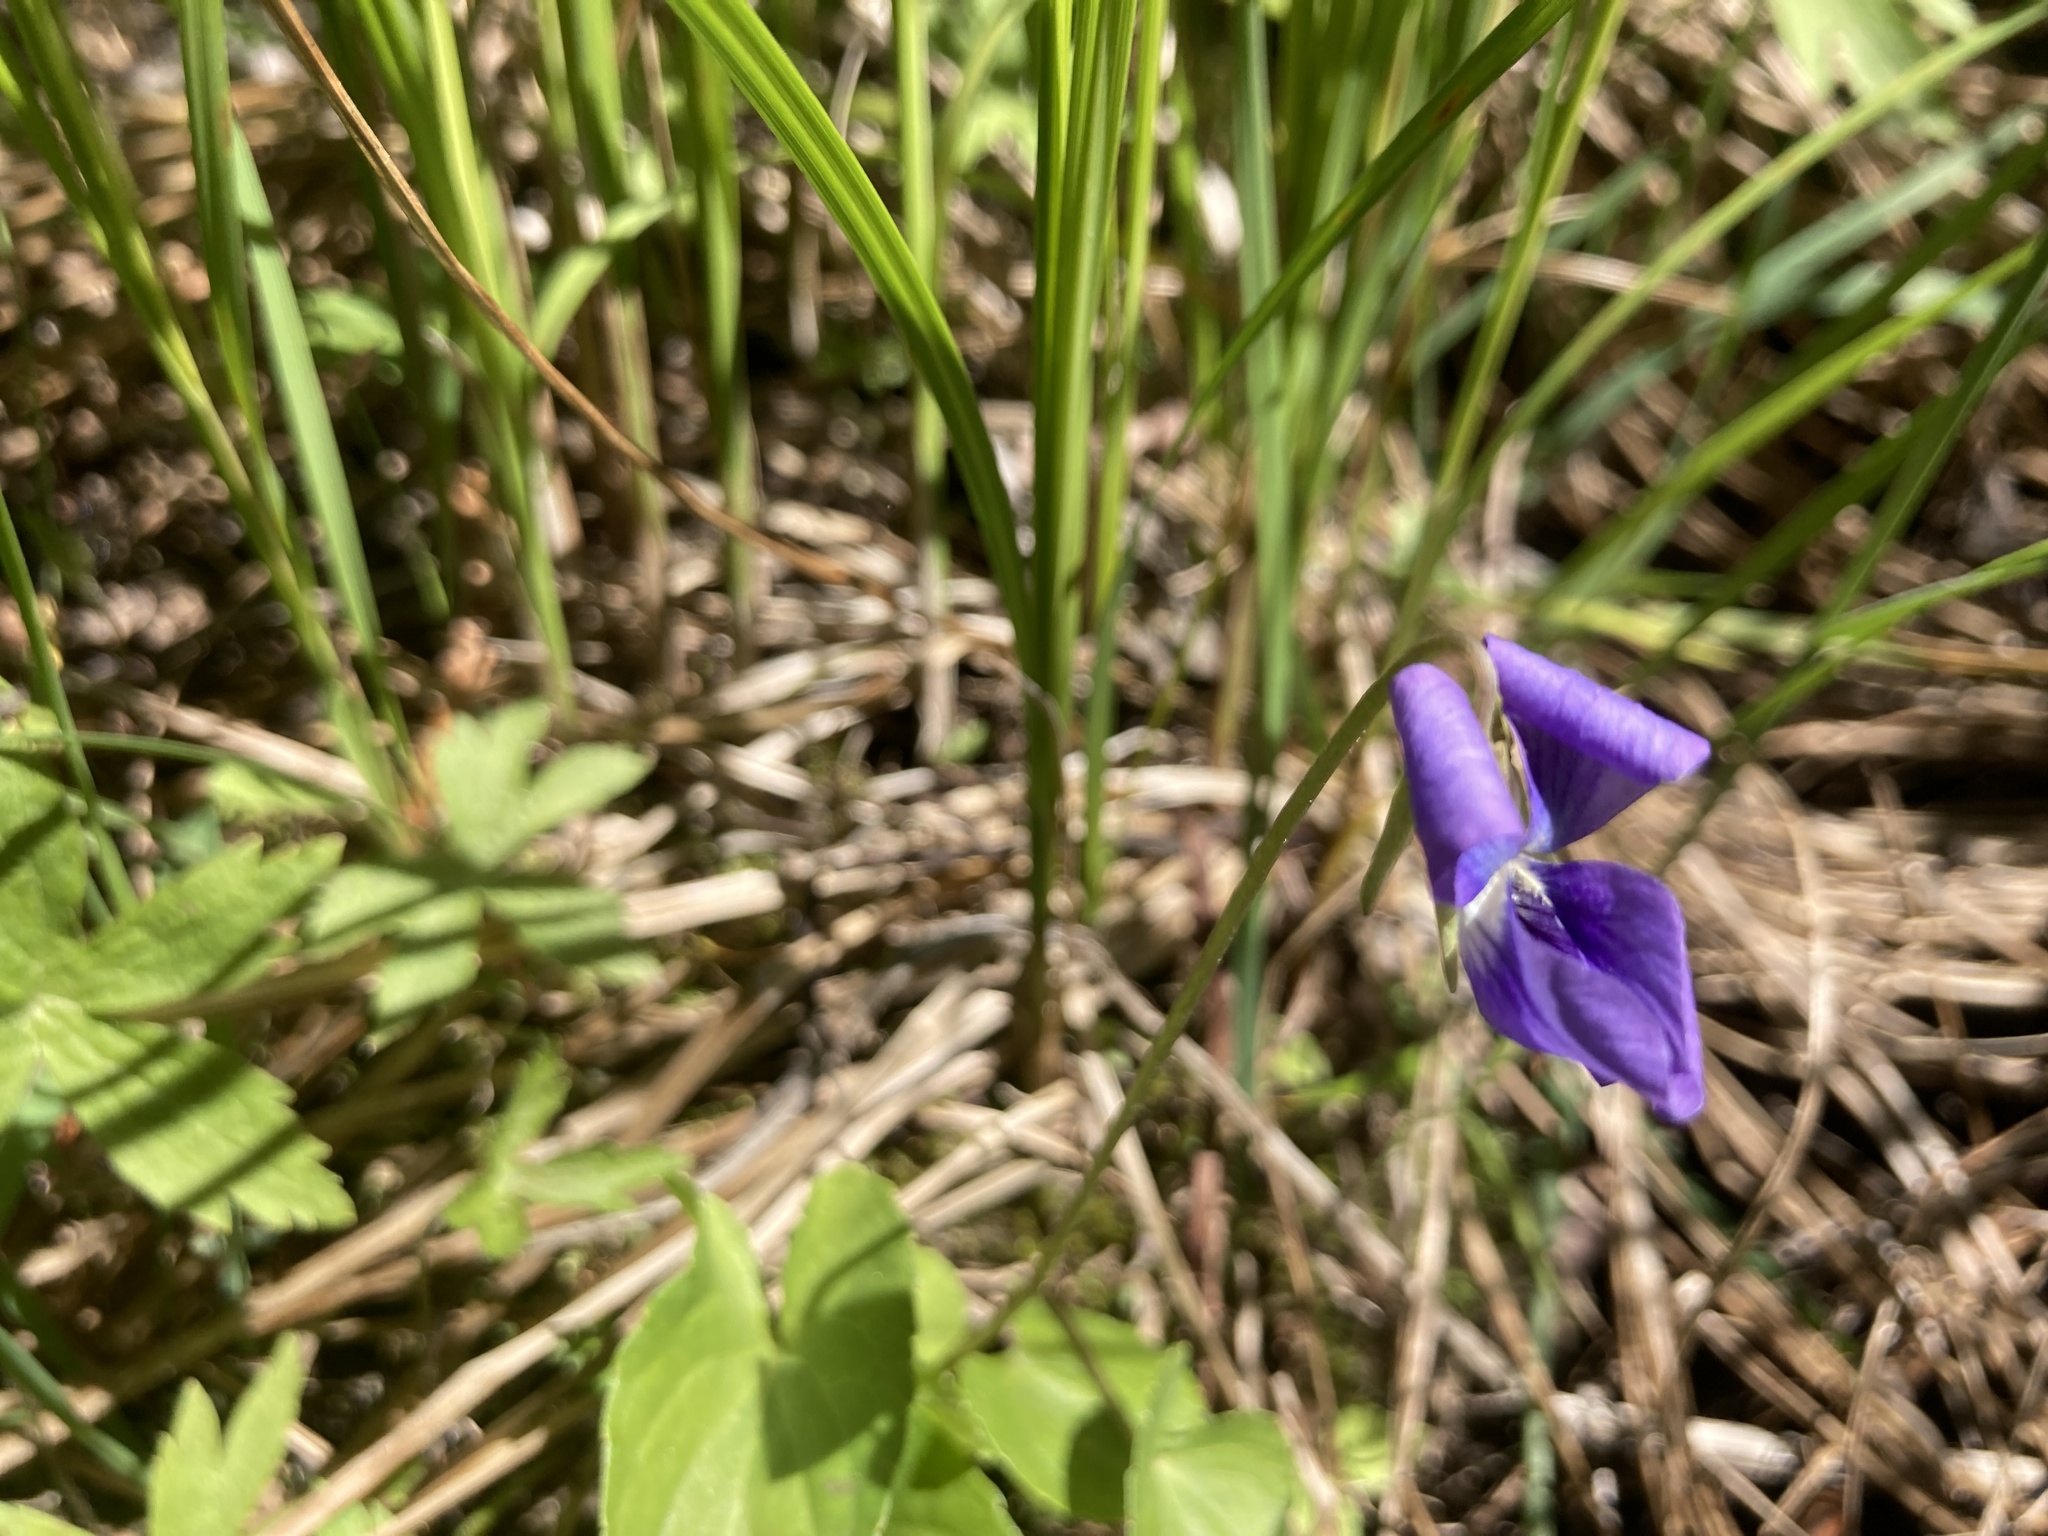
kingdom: Plantae
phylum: Tracheophyta
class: Magnoliopsida
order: Malpighiales
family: Violaceae
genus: Viola
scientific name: Viola cucullata
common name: Marsh blue violet
